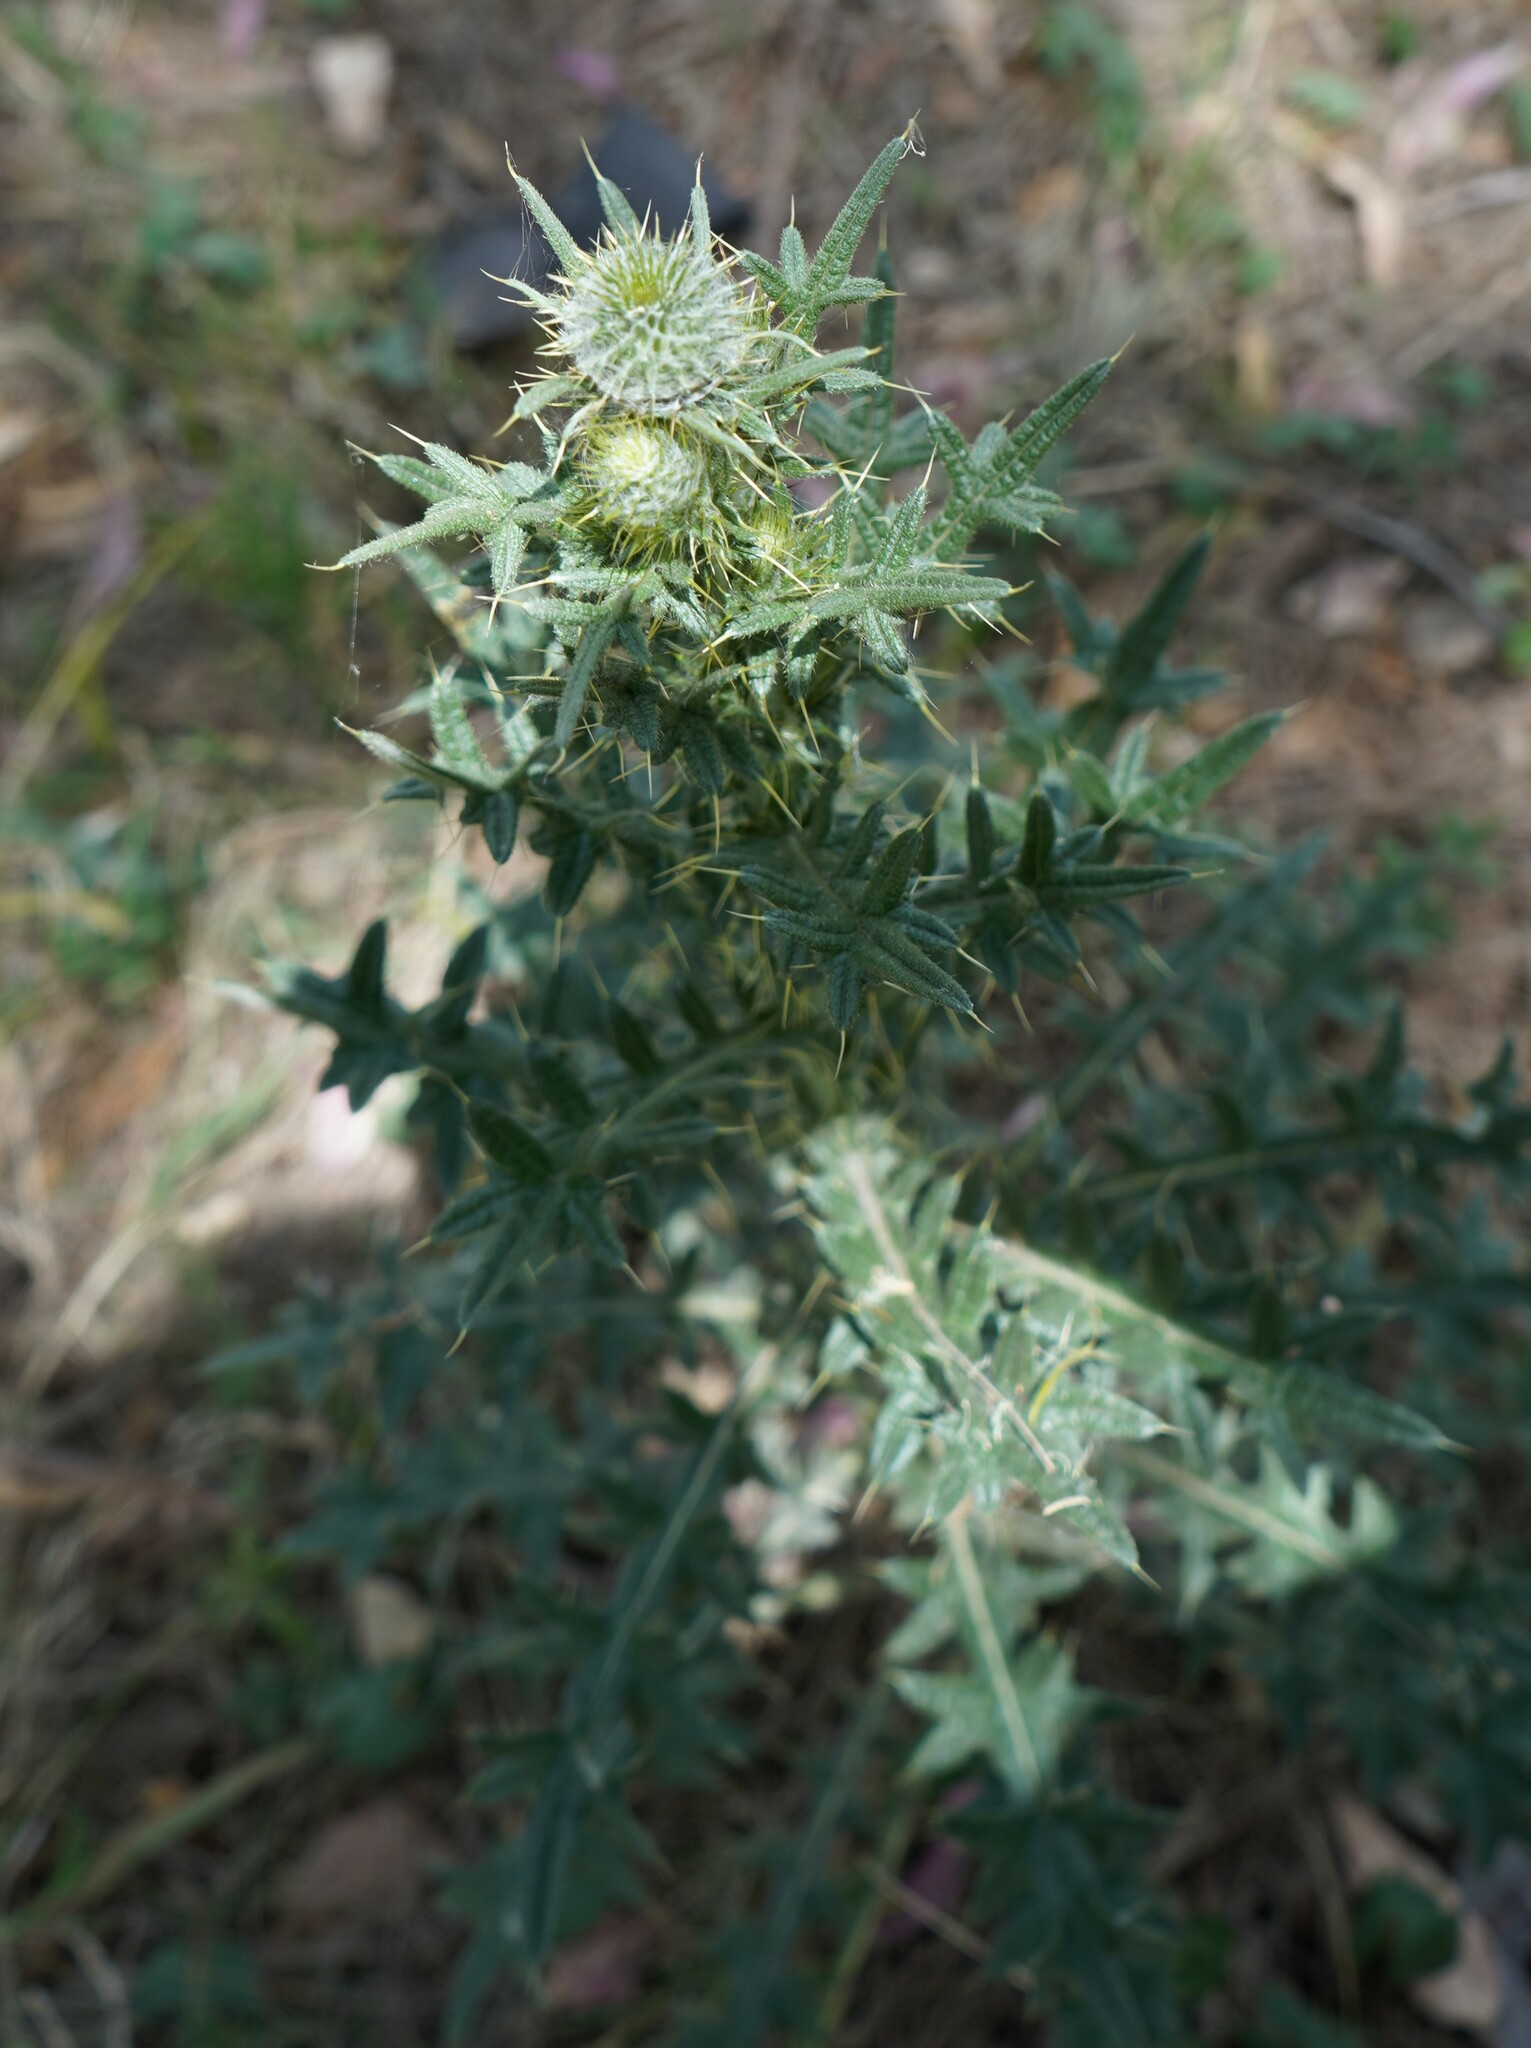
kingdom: Plantae
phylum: Tracheophyta
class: Magnoliopsida
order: Asterales
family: Asteraceae
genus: Cirsium
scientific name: Cirsium vulgare
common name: Bull thistle
